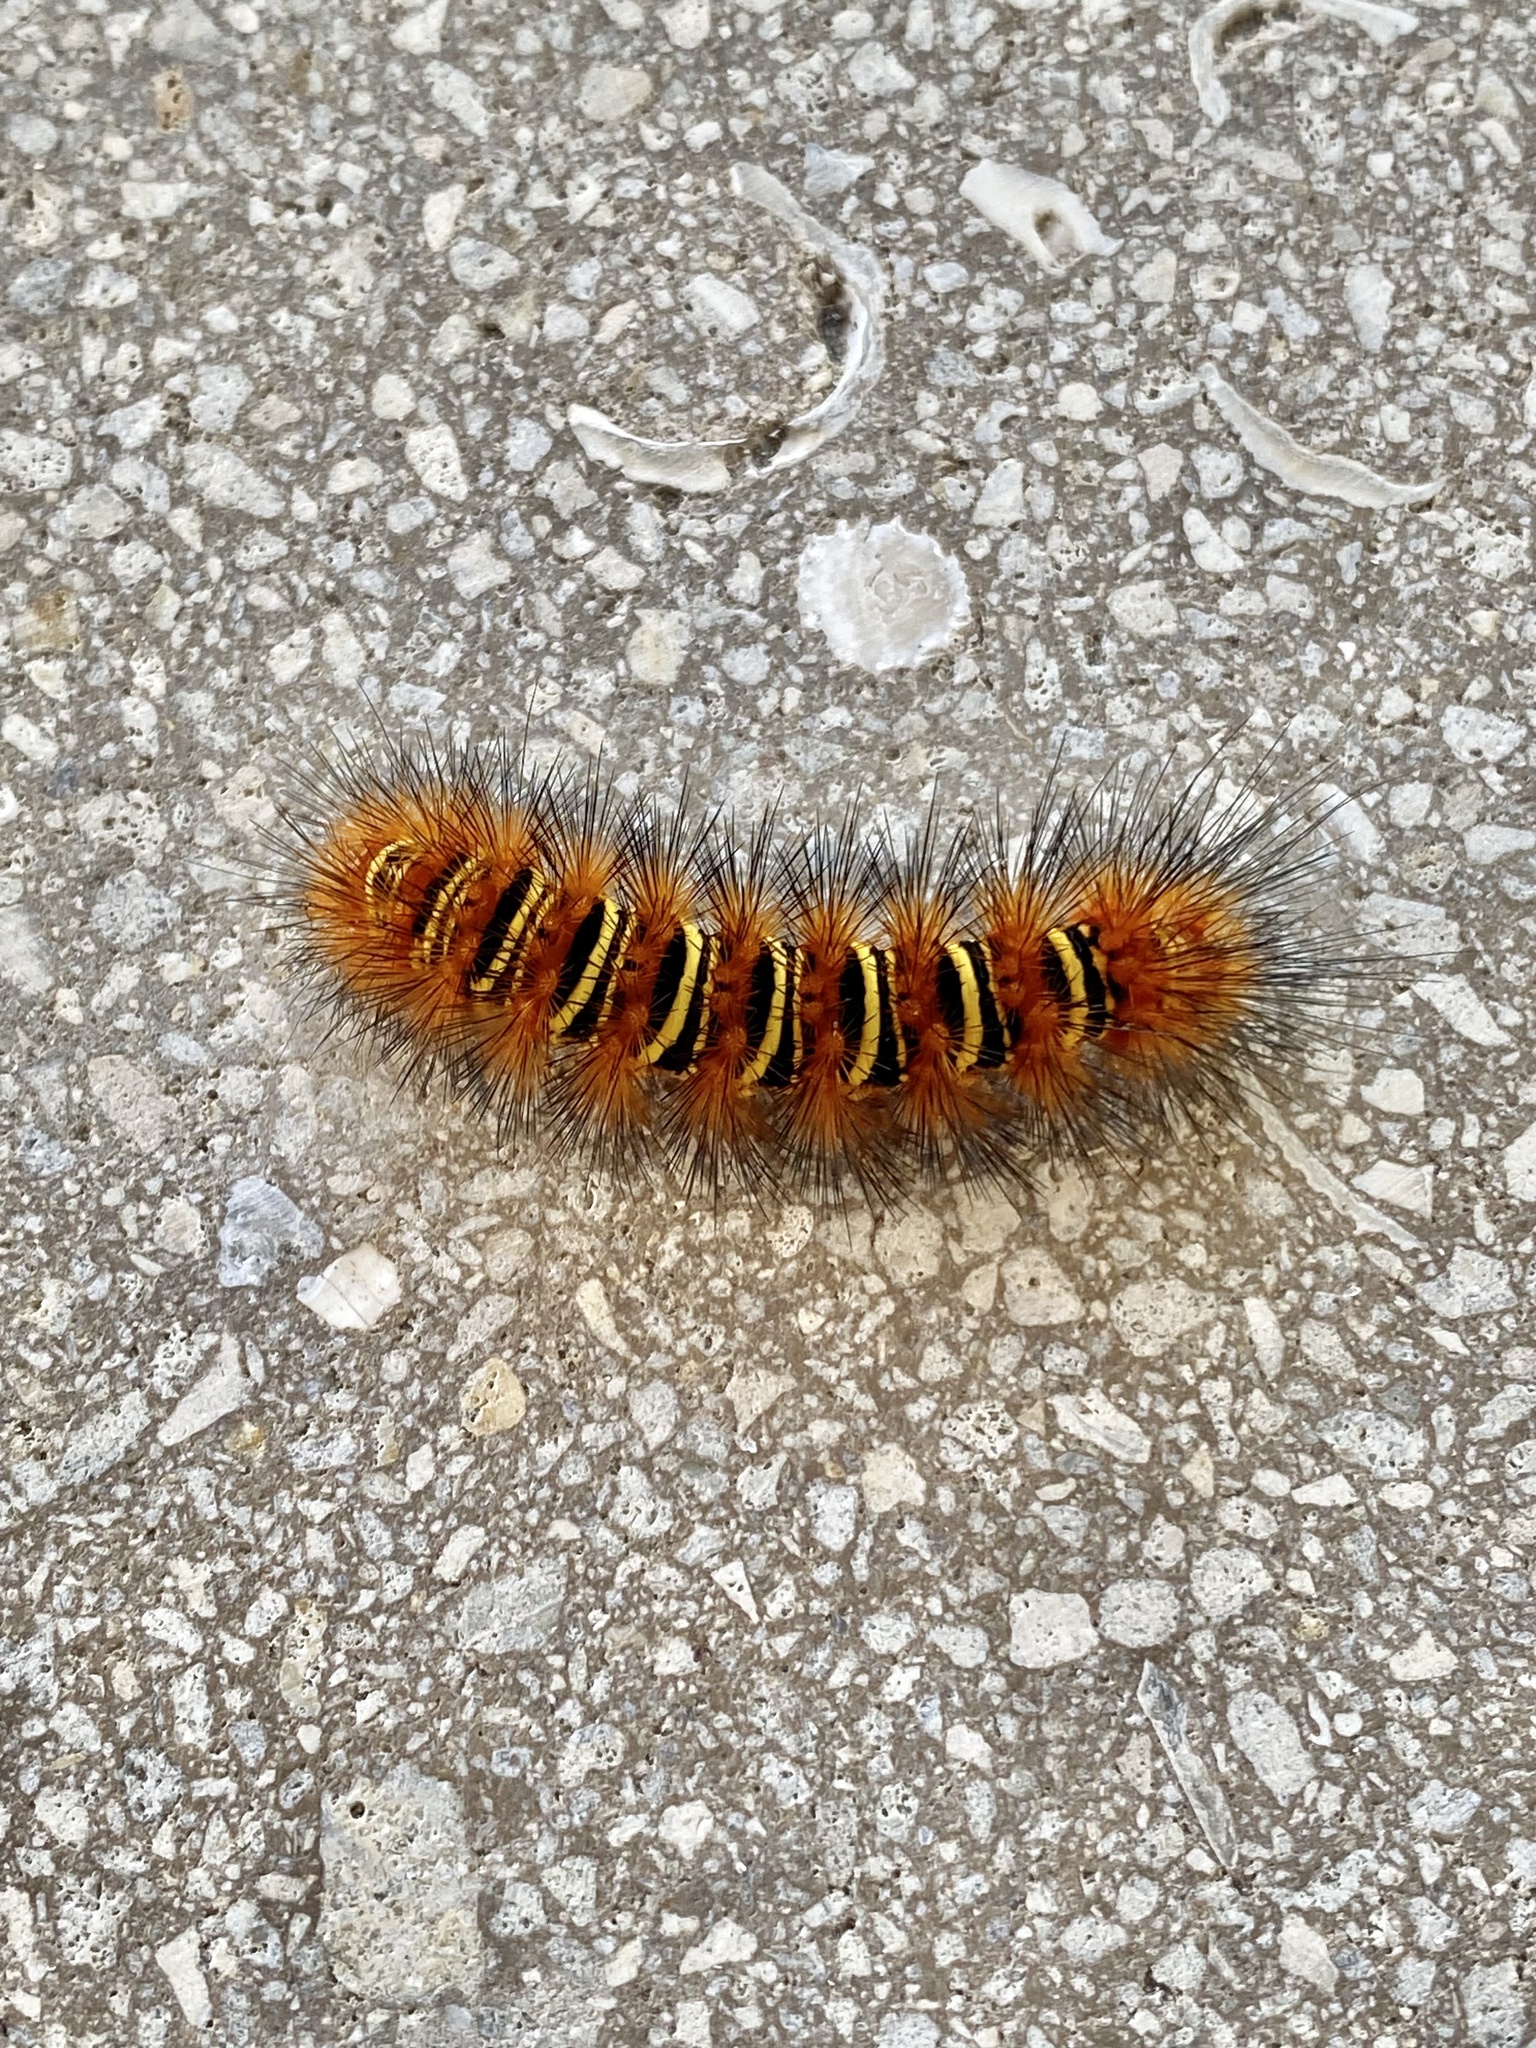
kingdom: Animalia
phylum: Arthropoda
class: Insecta
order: Lepidoptera
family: Erebidae
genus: Seirarctia
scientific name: Seirarctia echo
